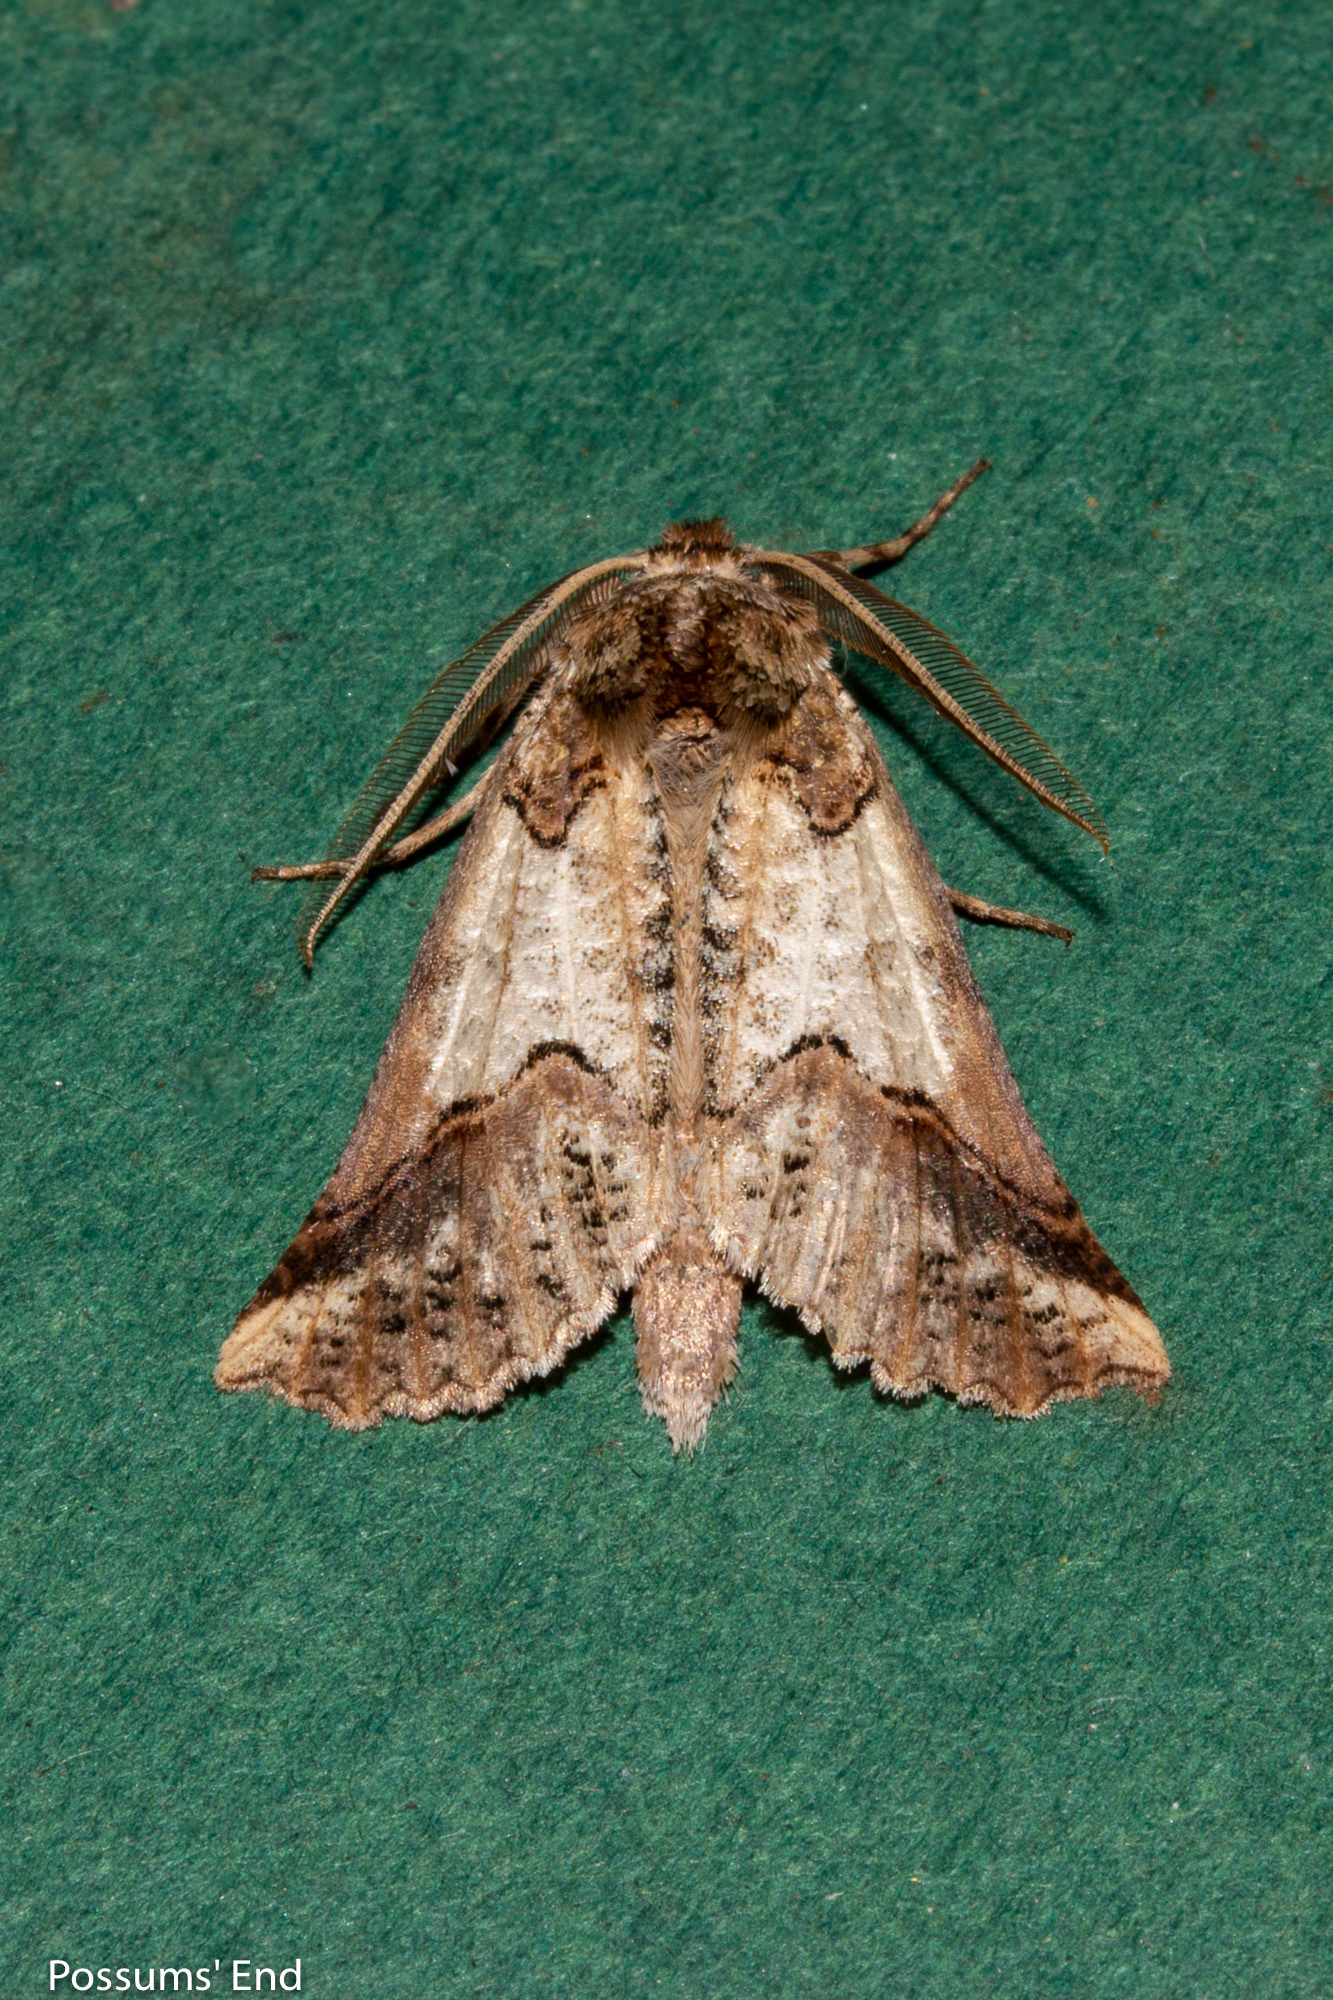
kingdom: Animalia
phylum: Arthropoda
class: Insecta
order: Lepidoptera
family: Geometridae
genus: Declana
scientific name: Declana
